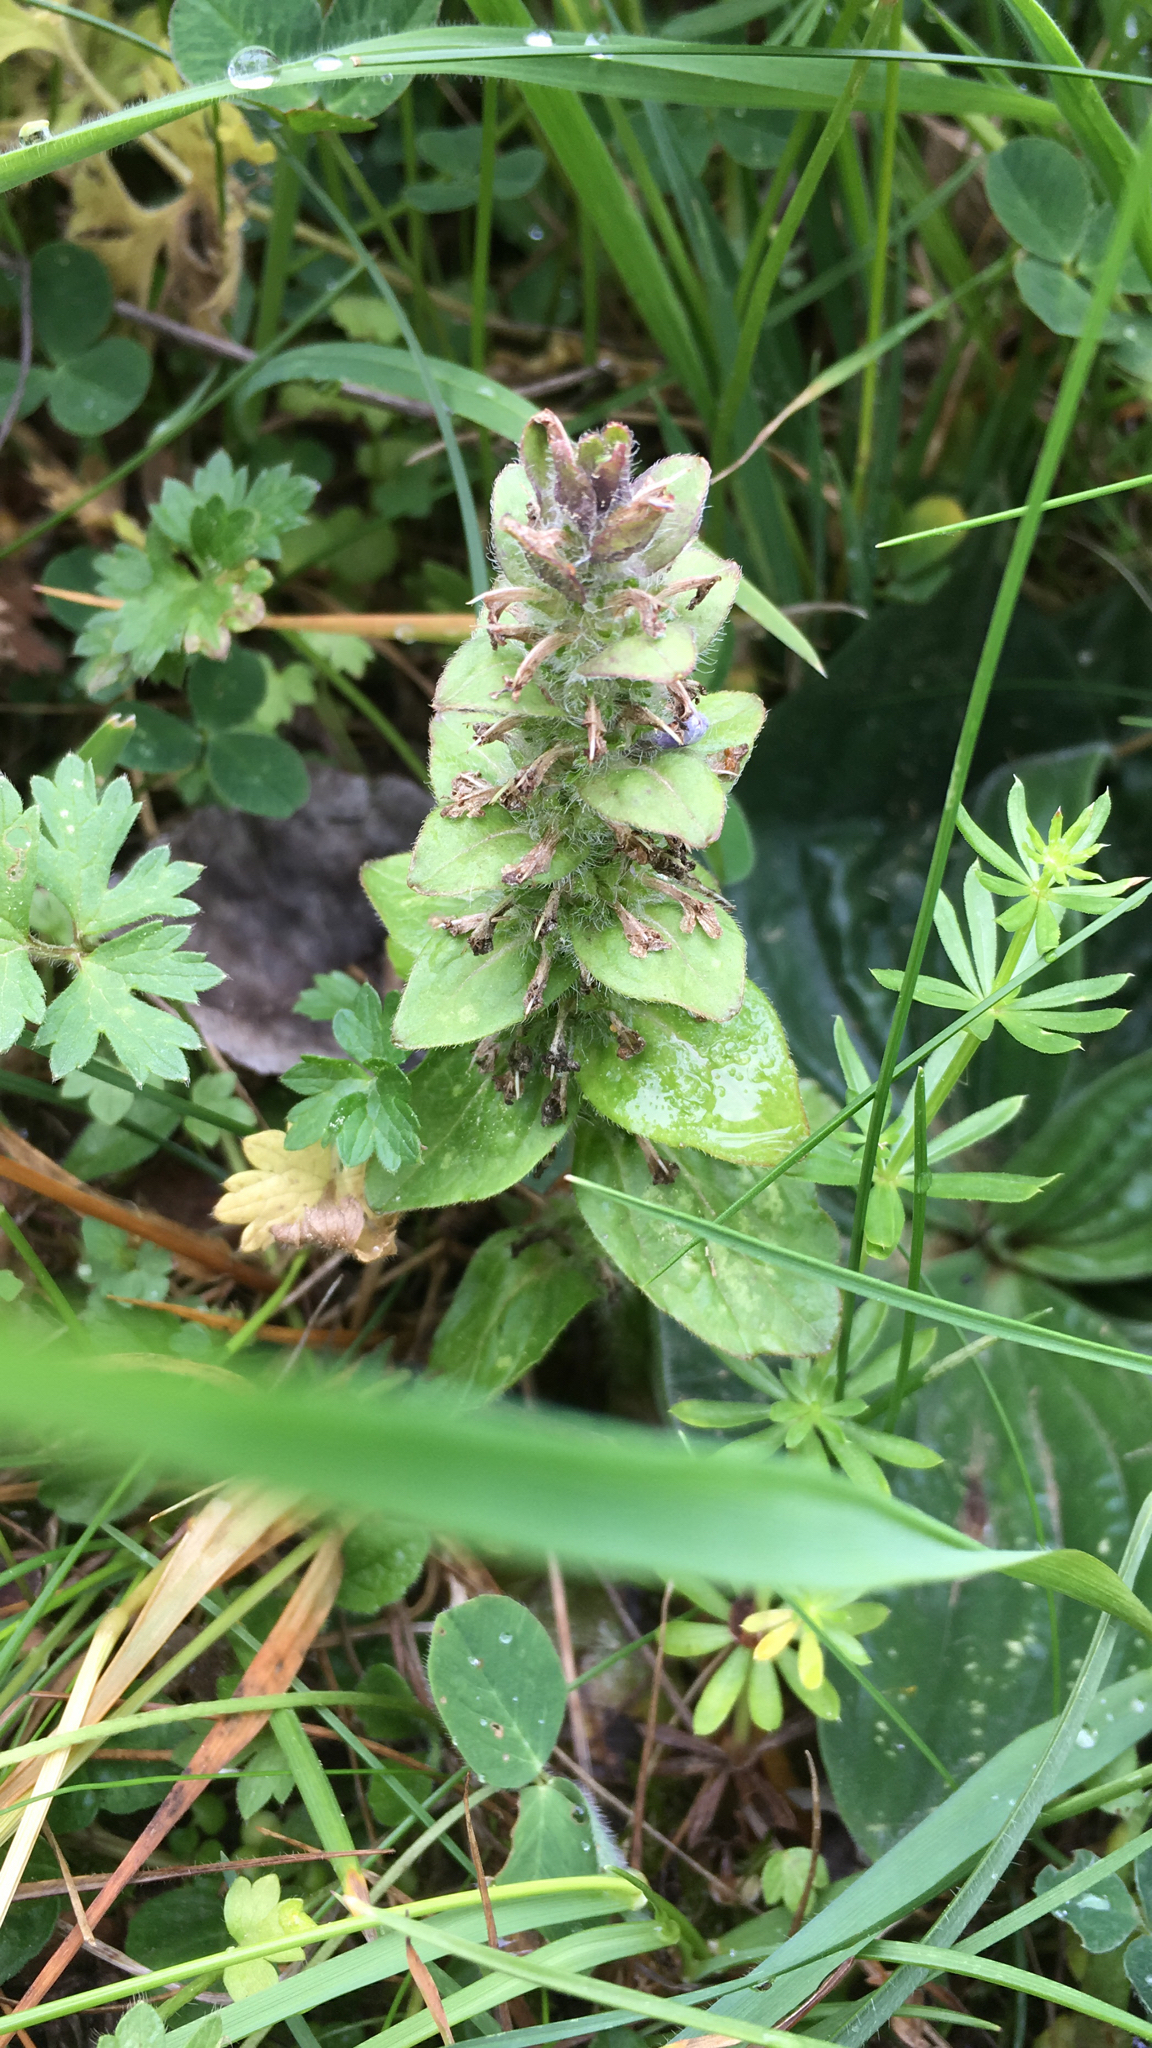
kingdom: Plantae
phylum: Tracheophyta
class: Magnoliopsida
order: Lamiales
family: Lamiaceae
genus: Ajuga
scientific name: Ajuga reptans
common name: Bugle
